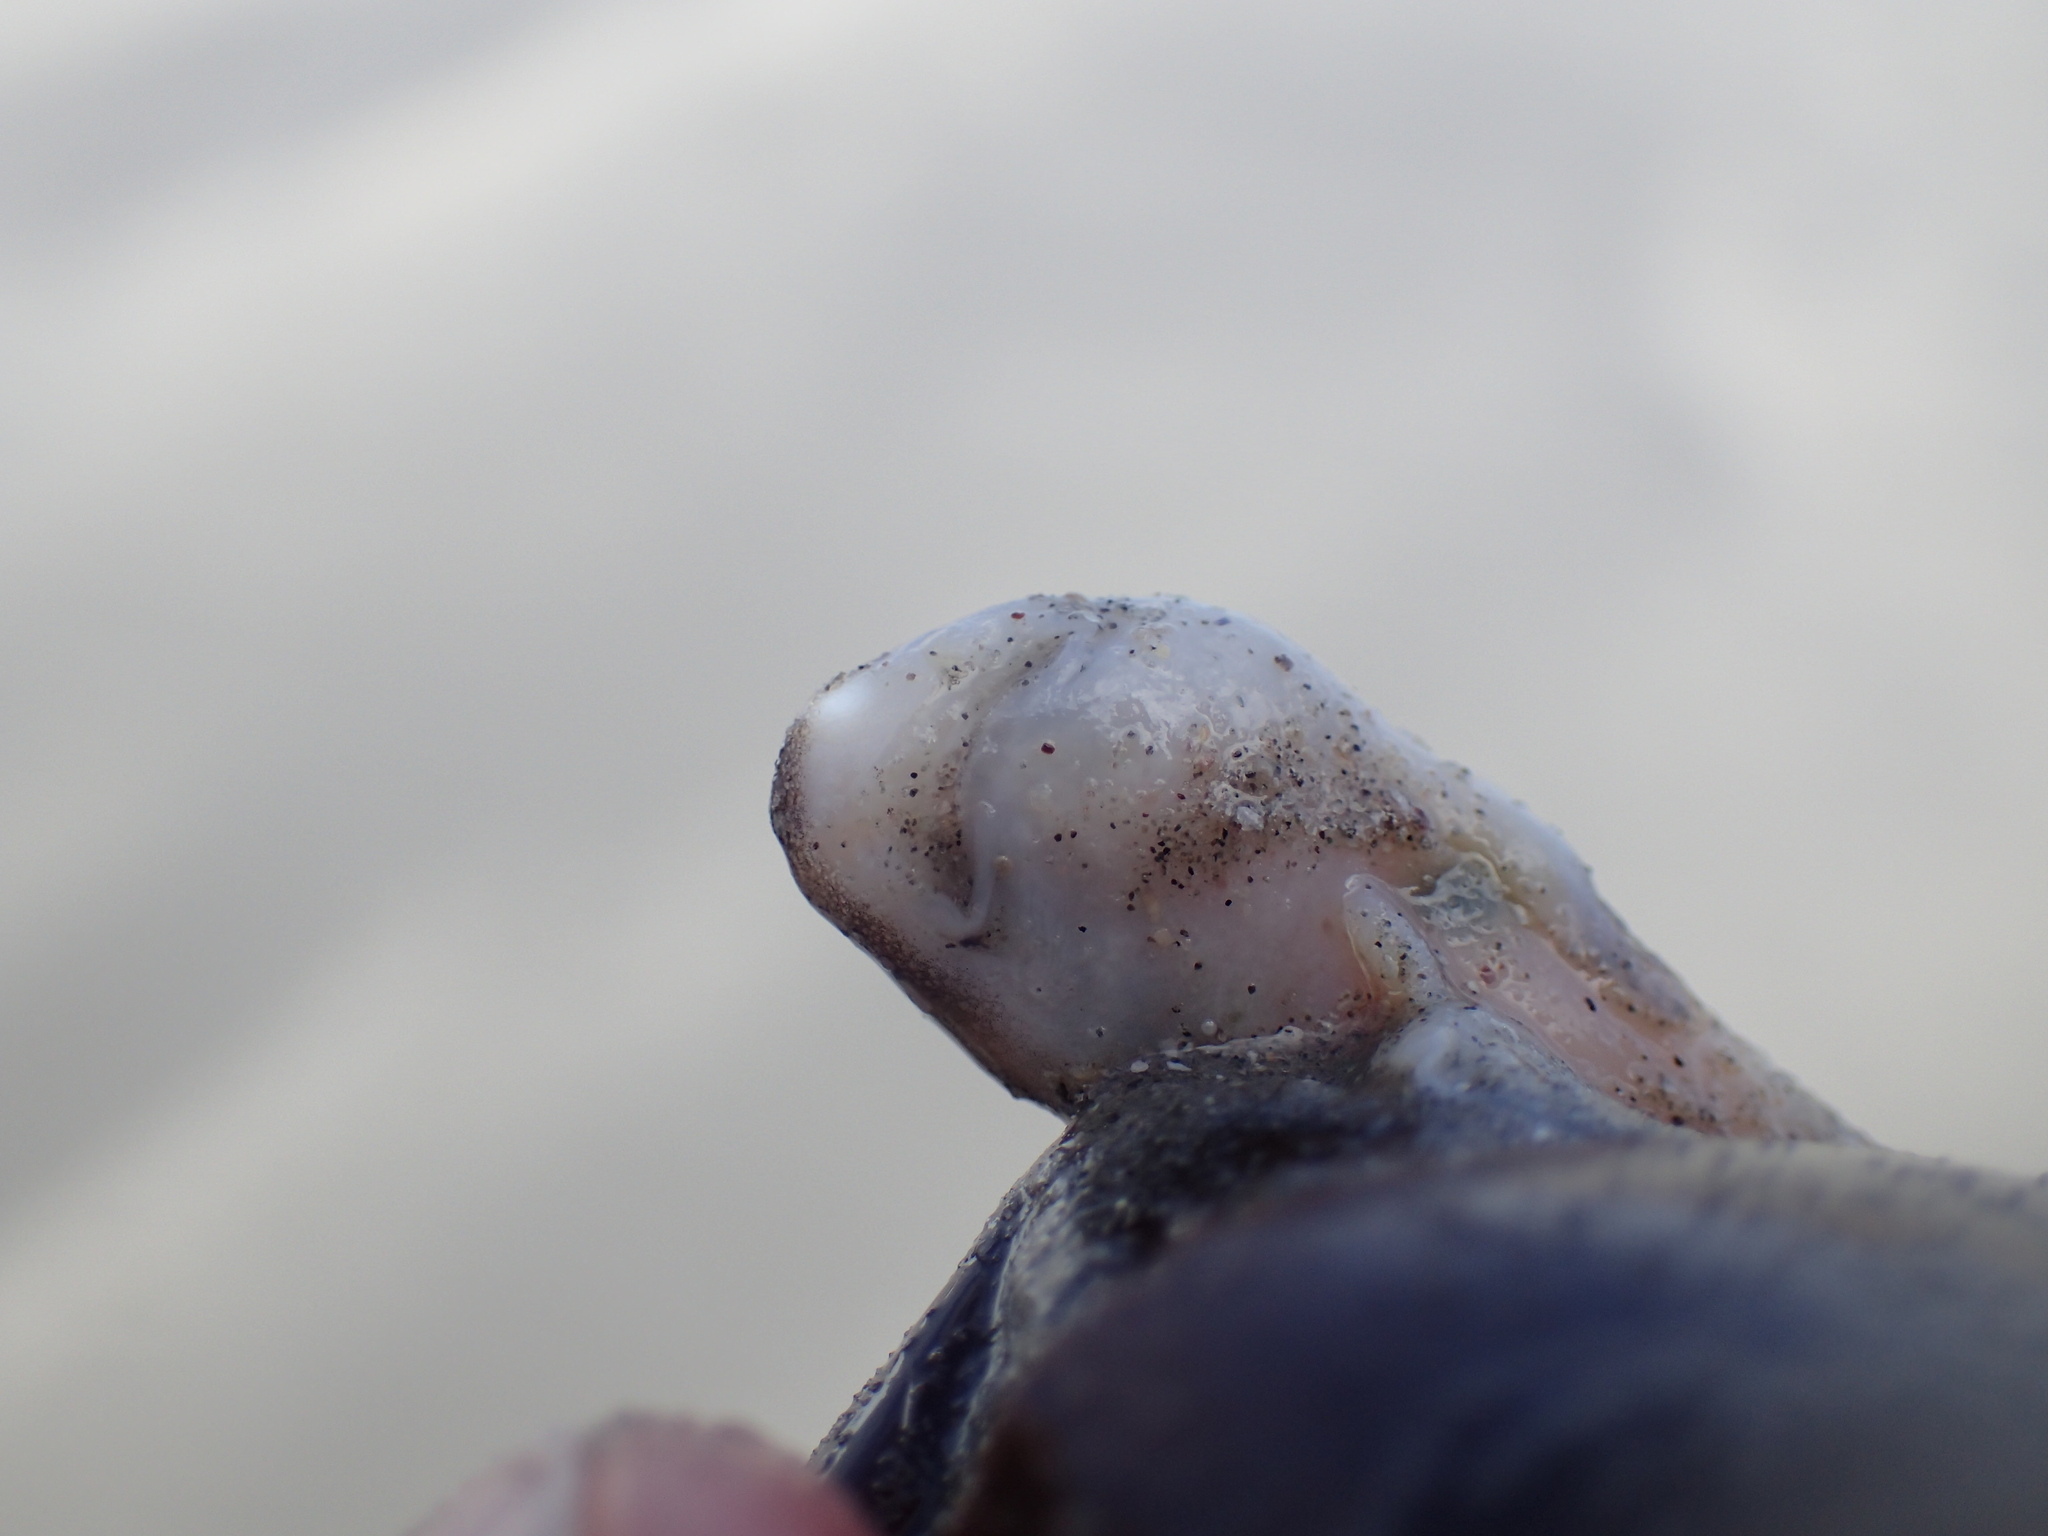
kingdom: Animalia
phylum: Chordata
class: Elasmobranchii
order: Carcharhiniformes
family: Scyliorhinidae
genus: Haploblepharus
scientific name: Haploblepharus pictus
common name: Dark shyshark
